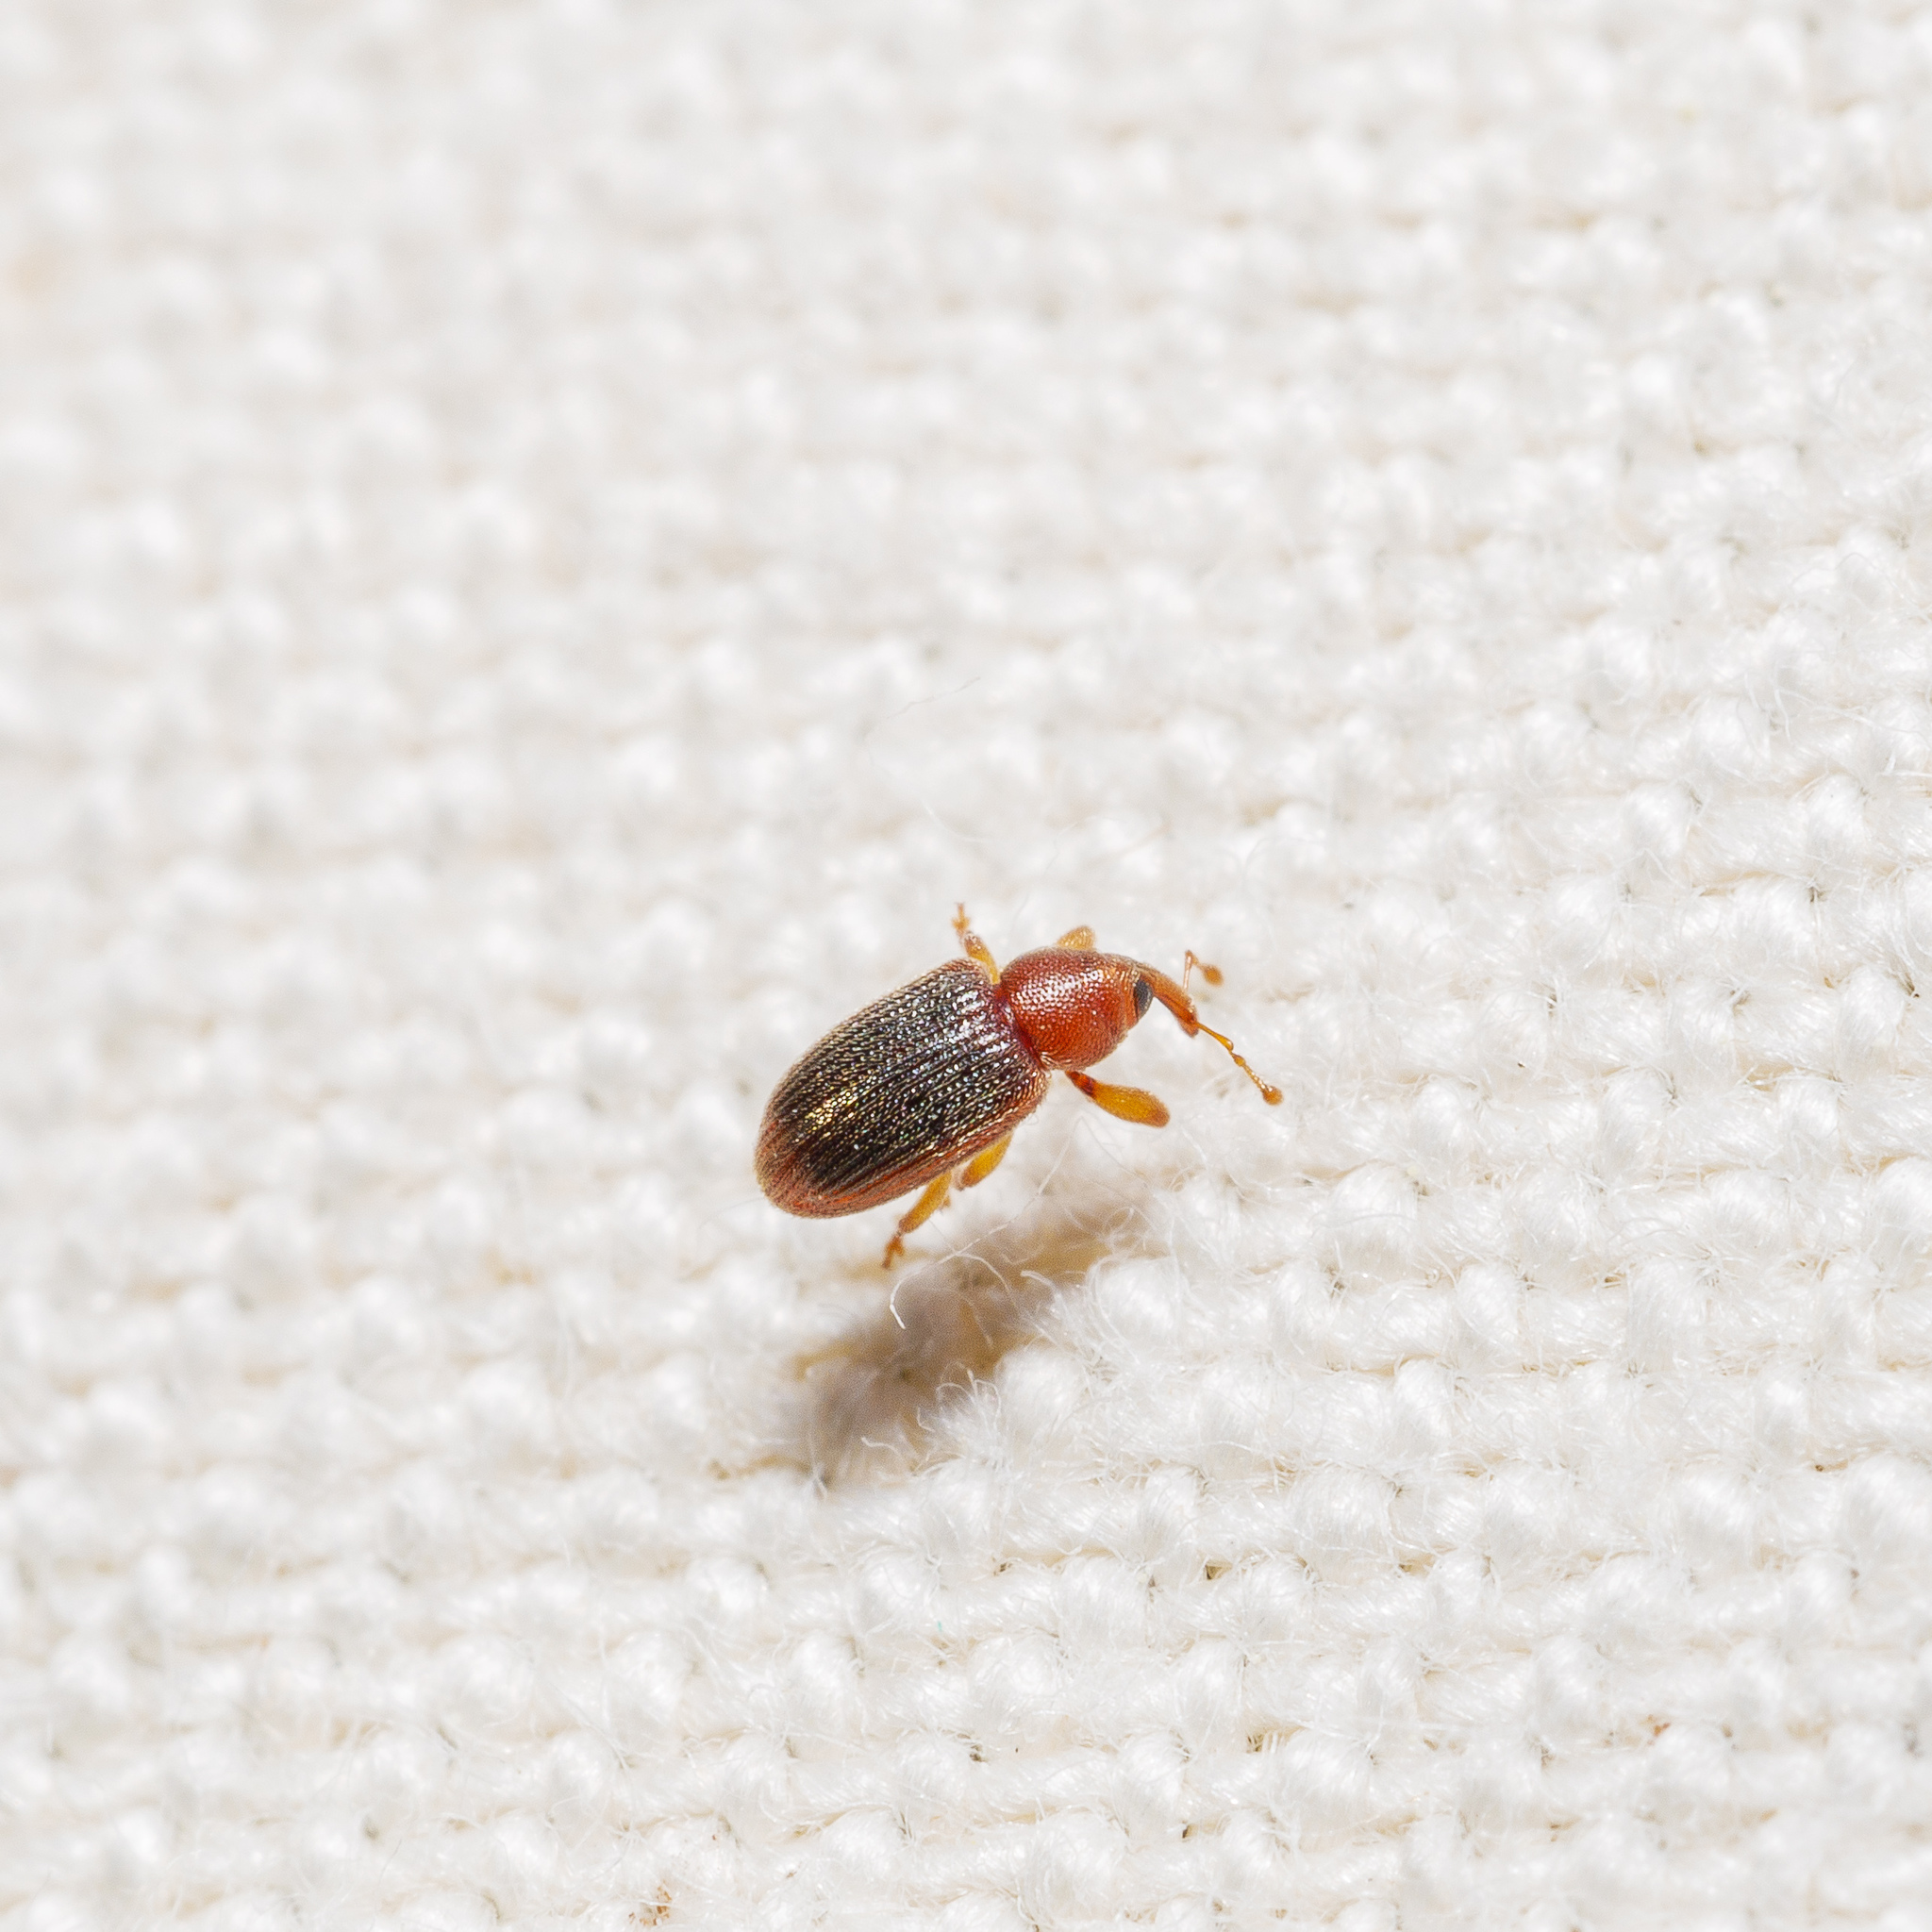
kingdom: Animalia
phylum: Arthropoda
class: Insecta
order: Coleoptera
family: Curculionidae
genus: Aneuma
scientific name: Aneuma
